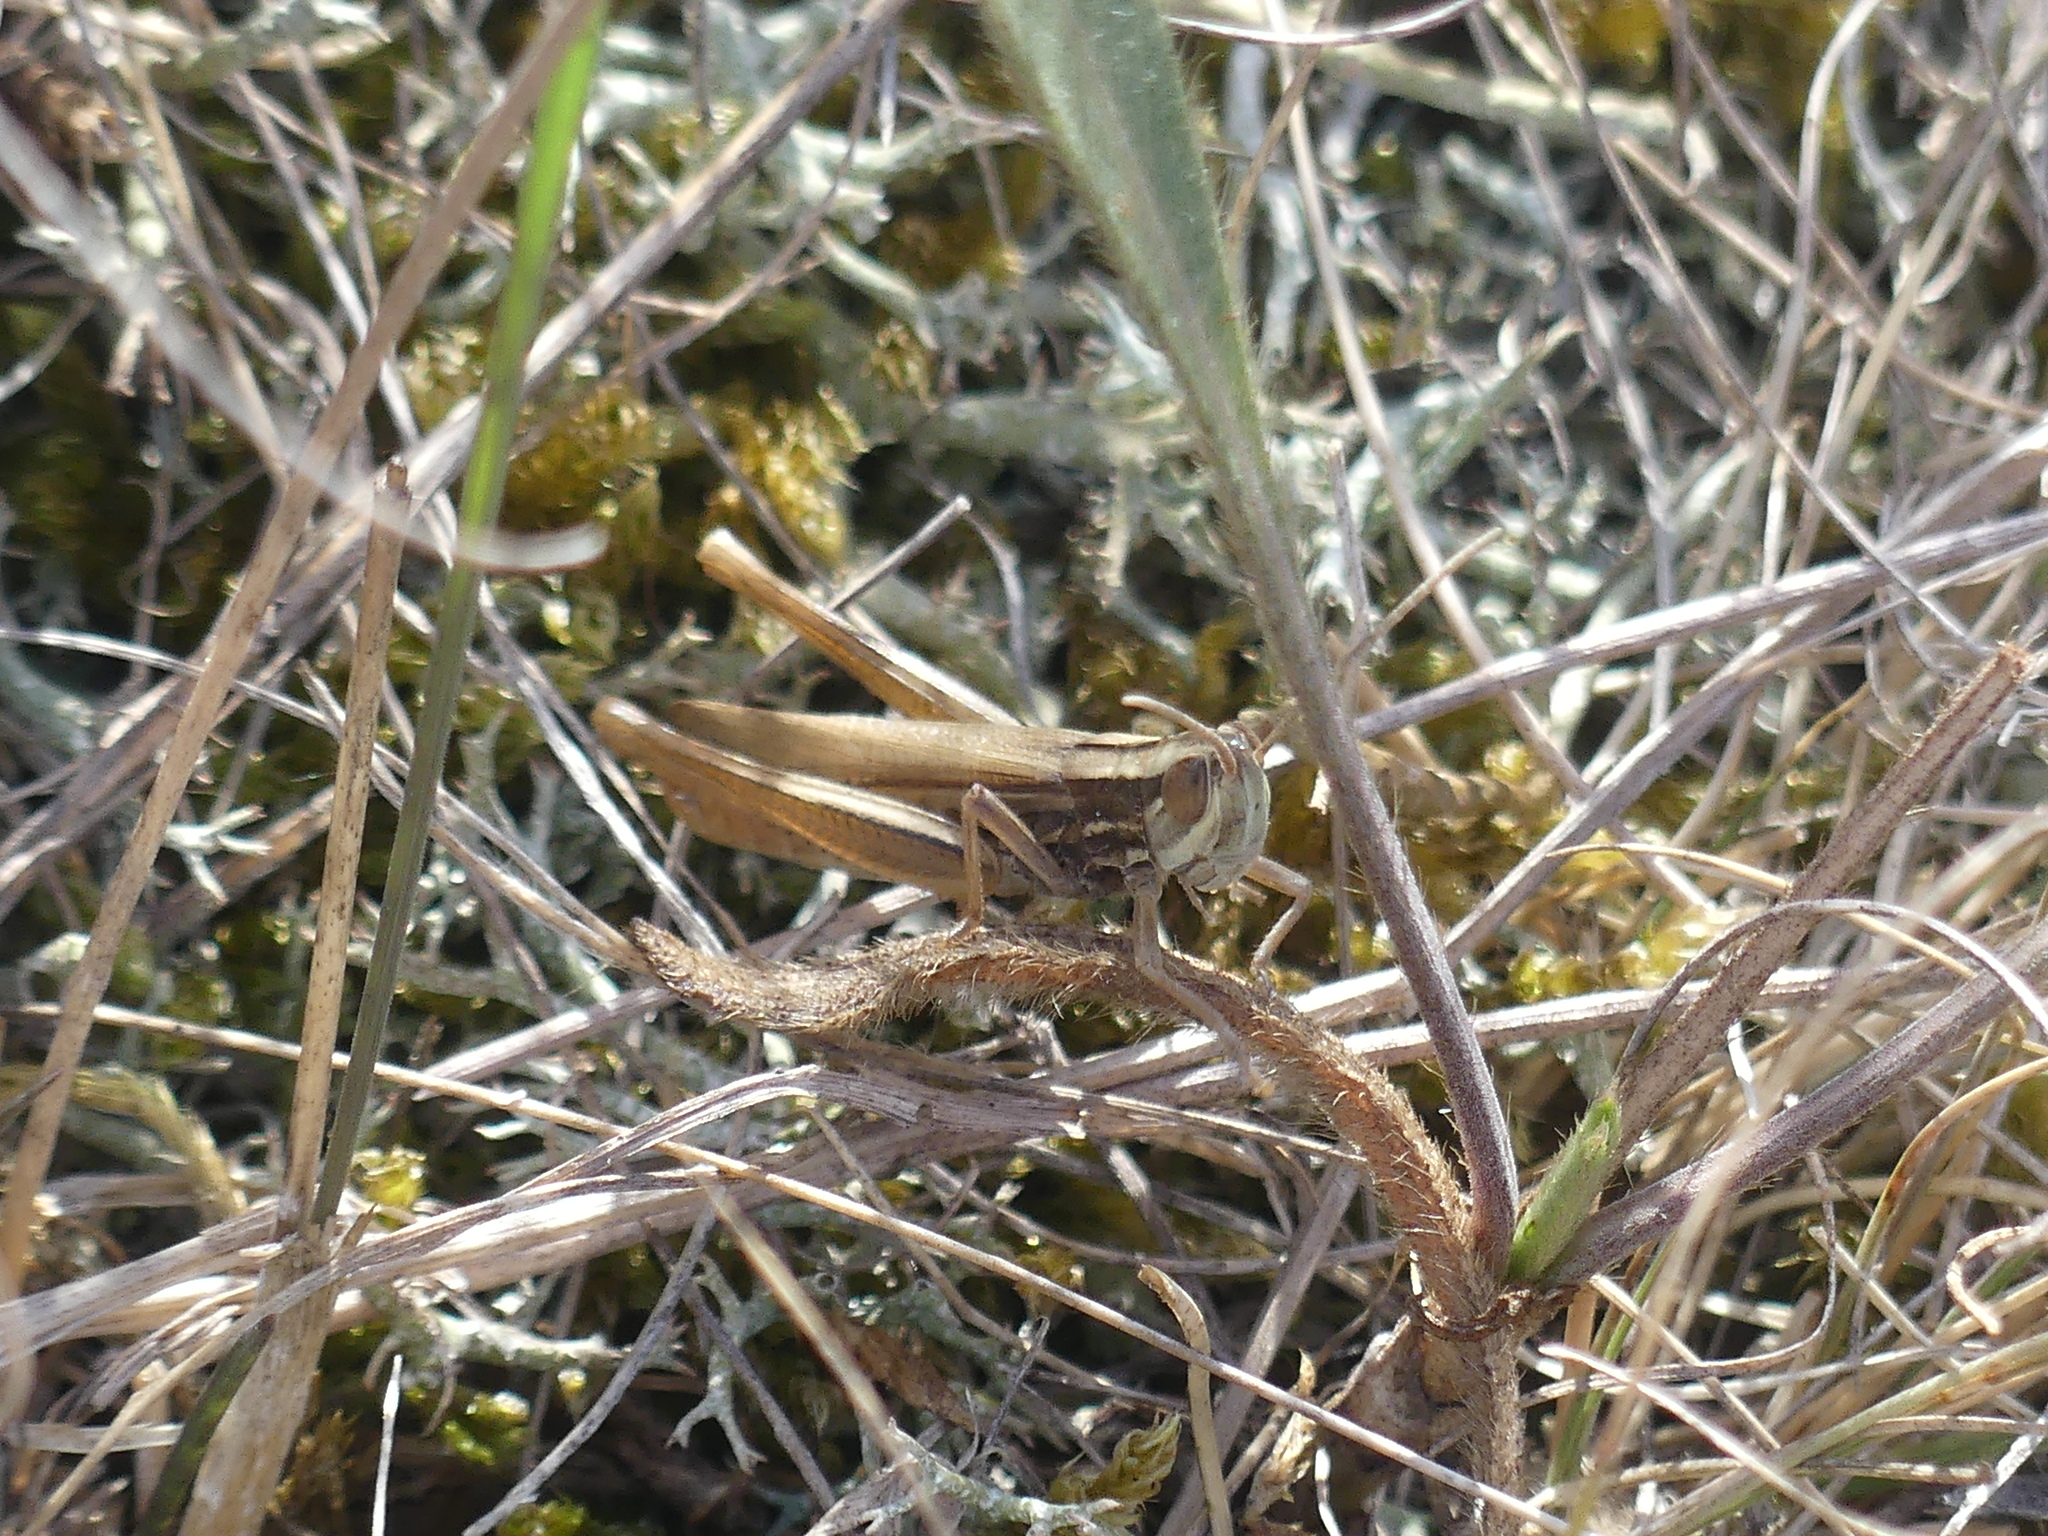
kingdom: Animalia
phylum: Arthropoda
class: Insecta
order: Orthoptera
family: Acrididae
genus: Euchorthippus
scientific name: Euchorthippus pulvinatus
